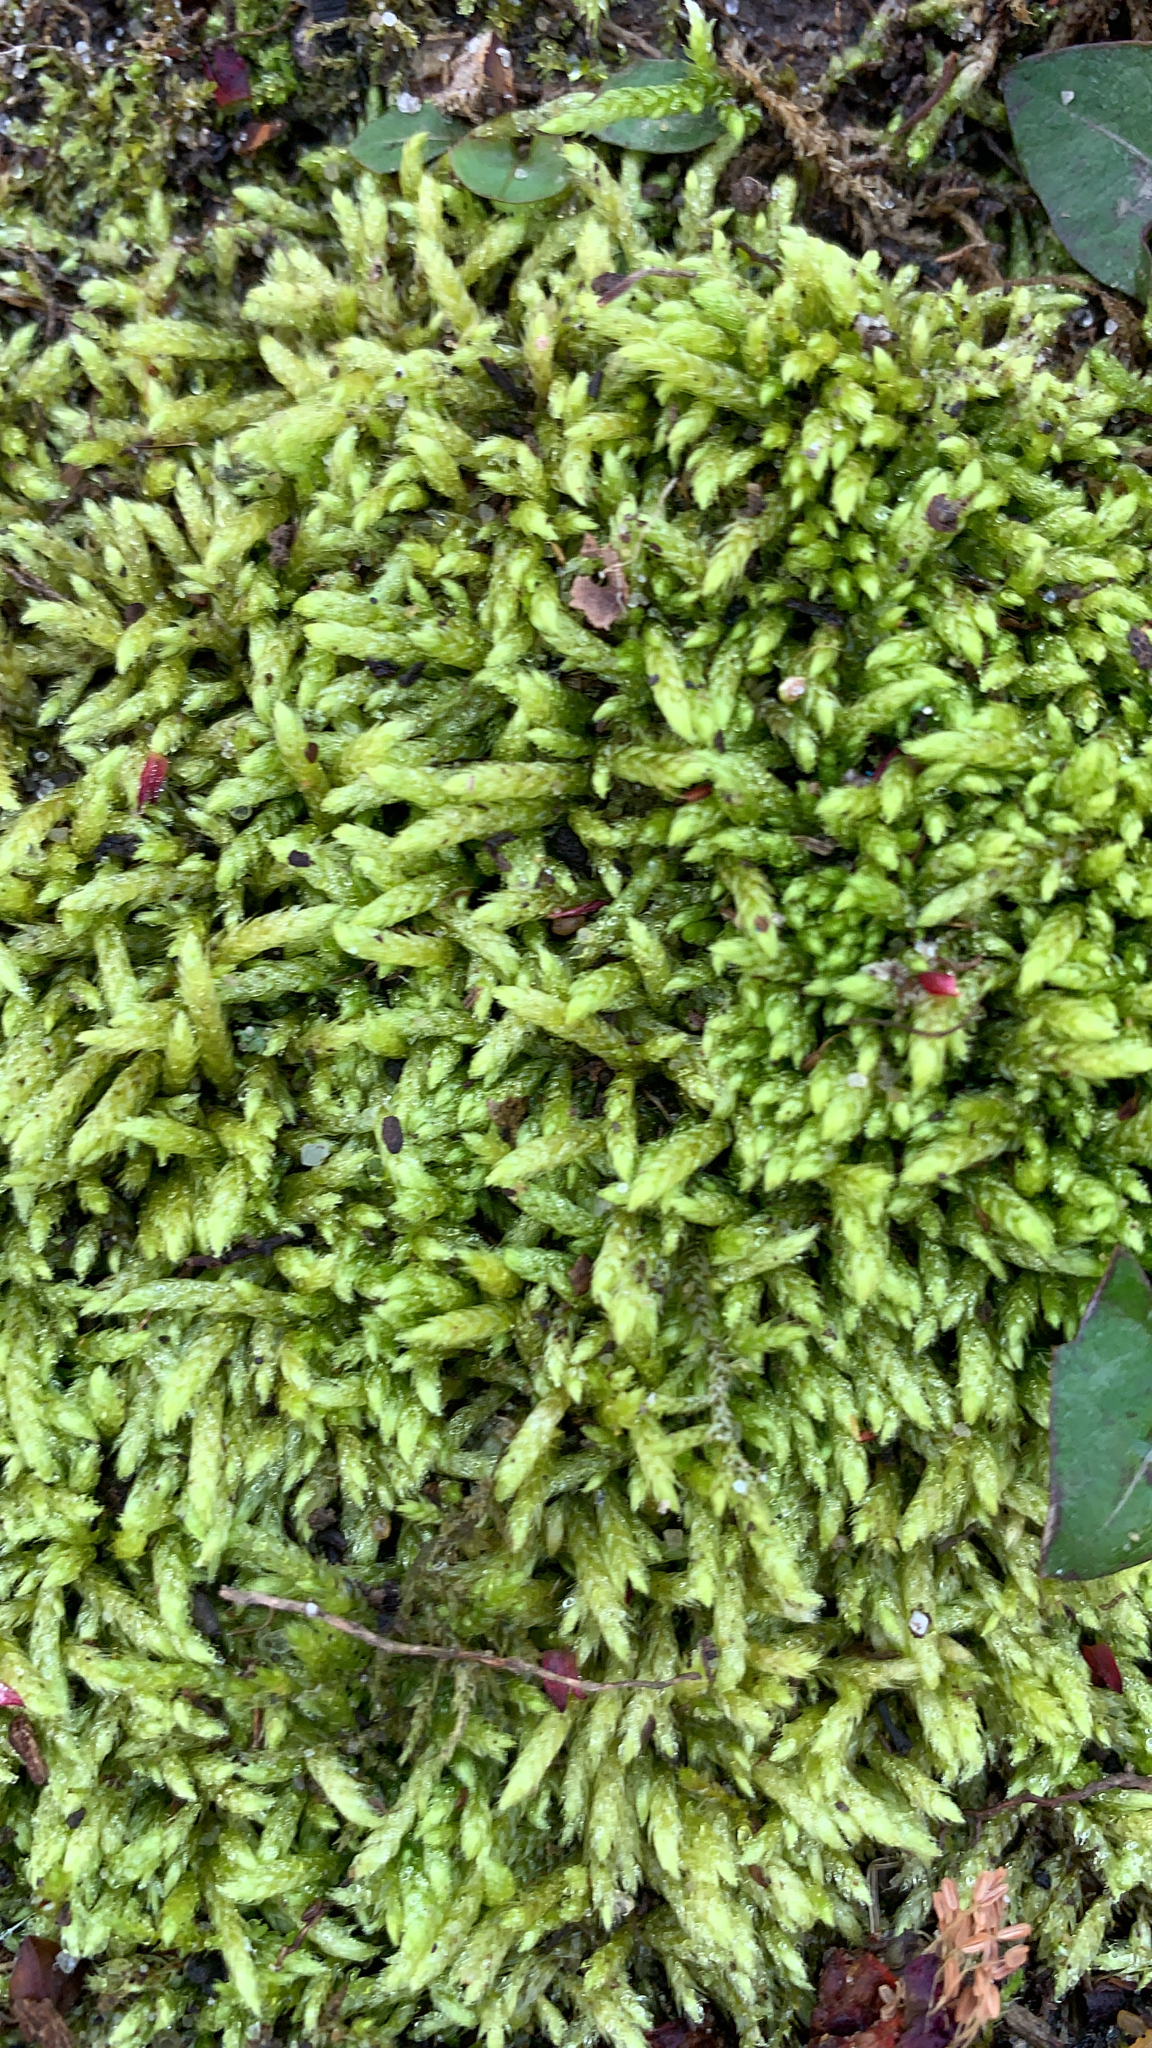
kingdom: Plantae
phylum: Bryophyta
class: Bryopsida
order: Hypnales
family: Entodontaceae
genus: Entodon
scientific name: Entodon seductrix
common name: Round-stemmed entodon moss
